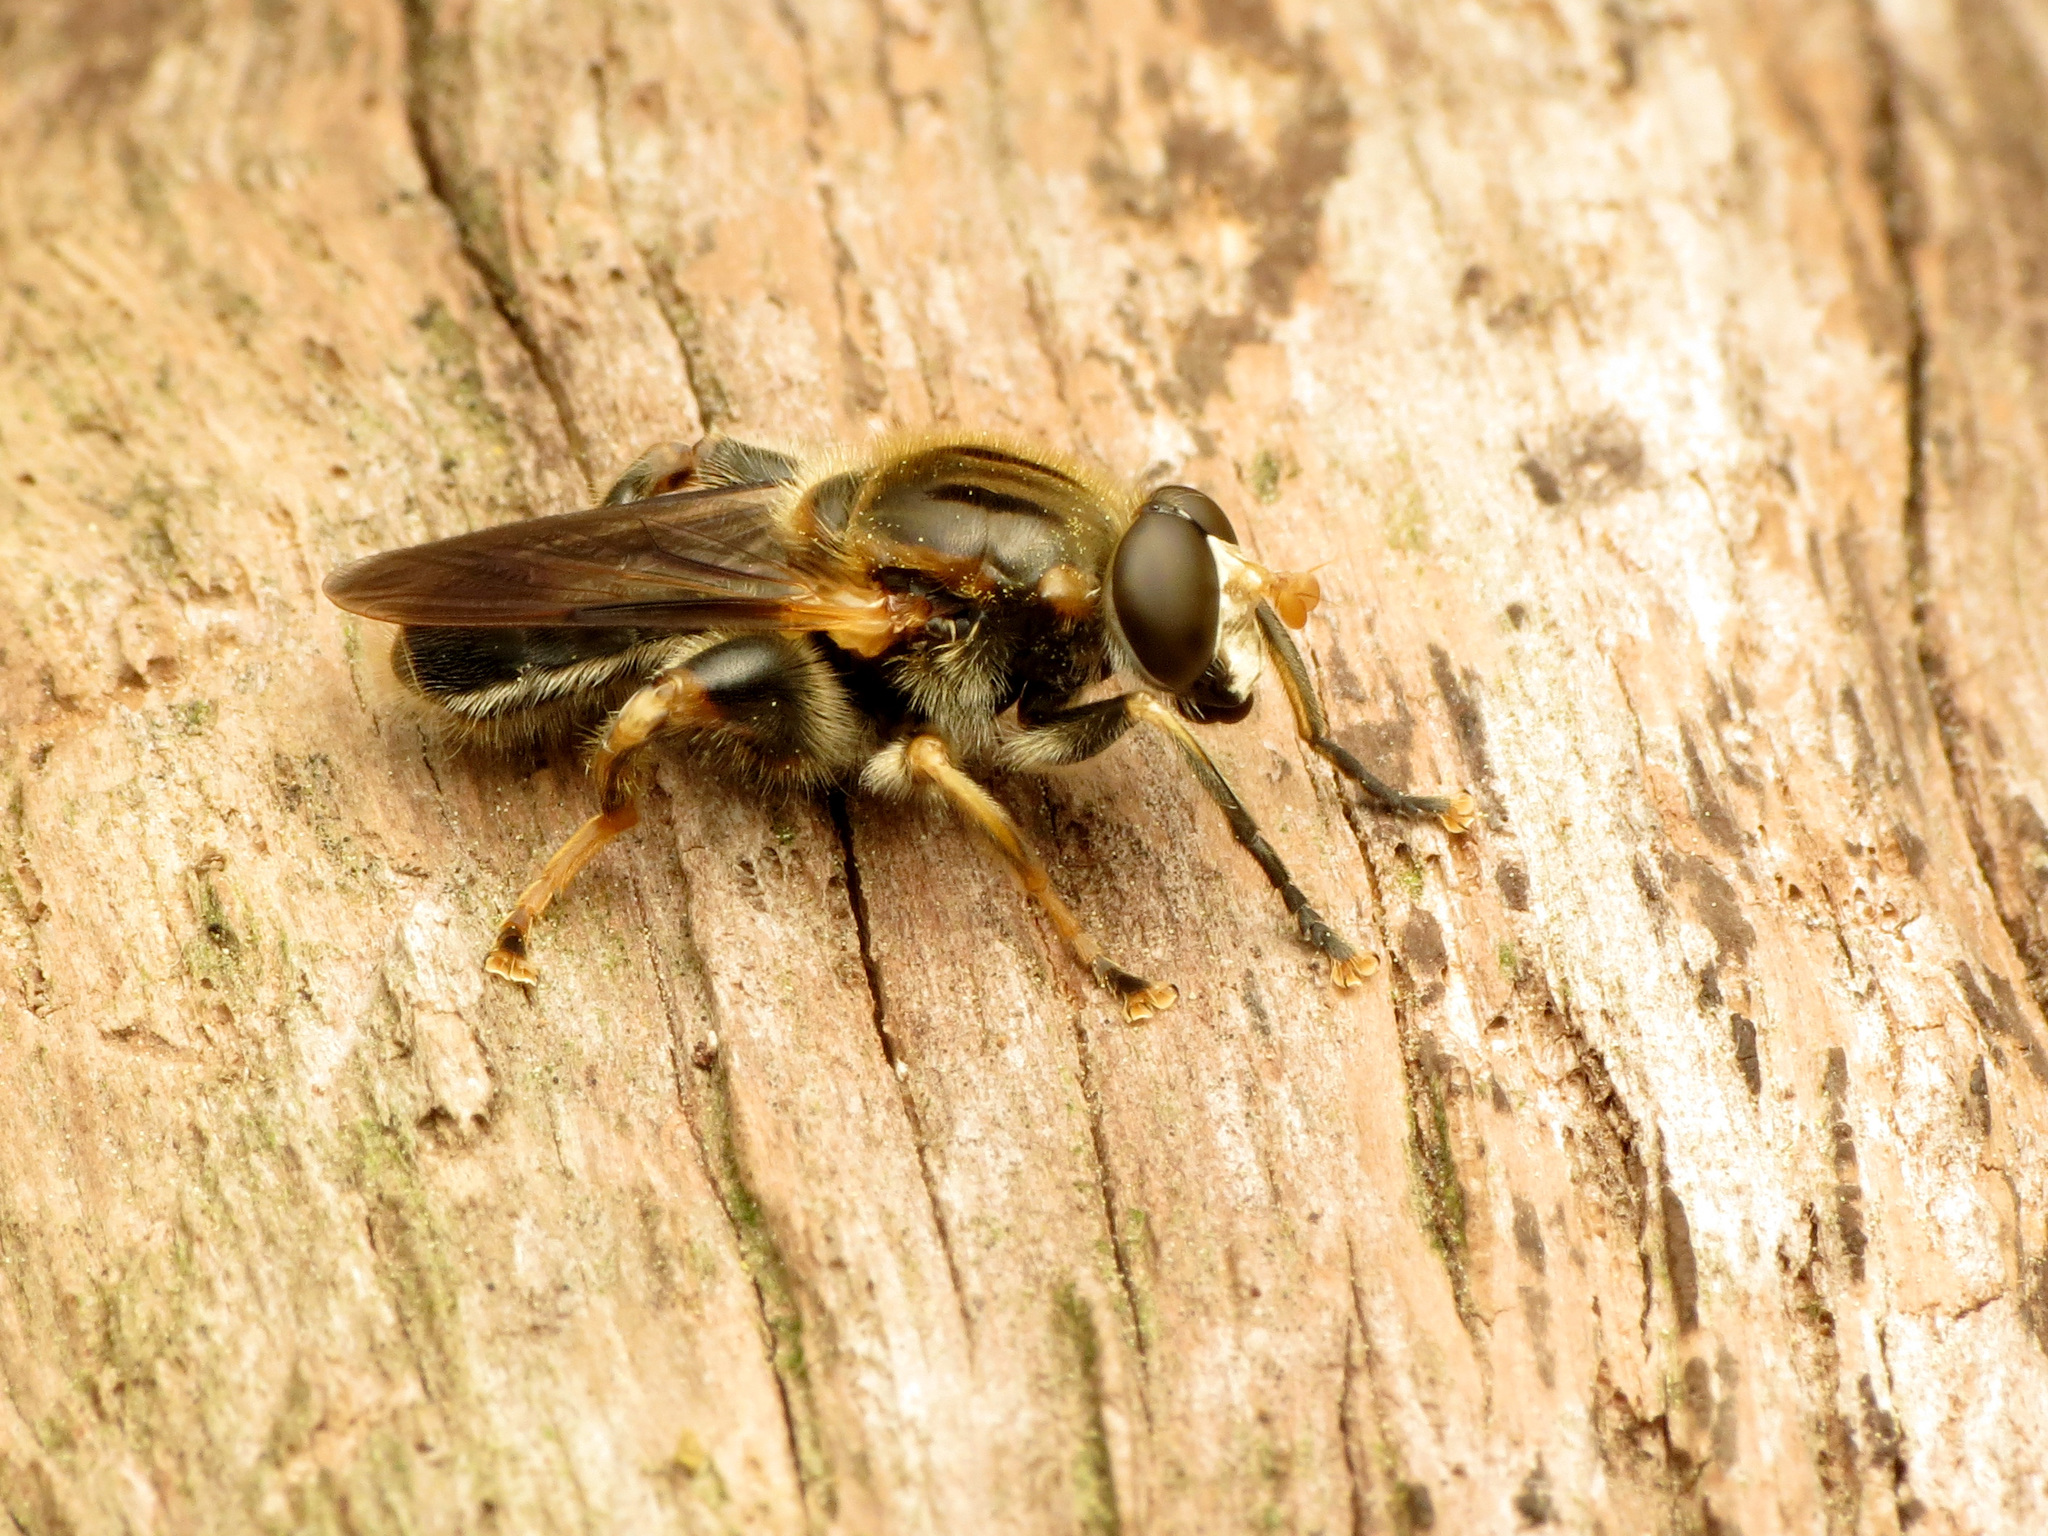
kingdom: Animalia
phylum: Arthropoda
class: Insecta
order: Diptera
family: Syrphidae
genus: Teuchocnemis
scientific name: Teuchocnemis lituratus
